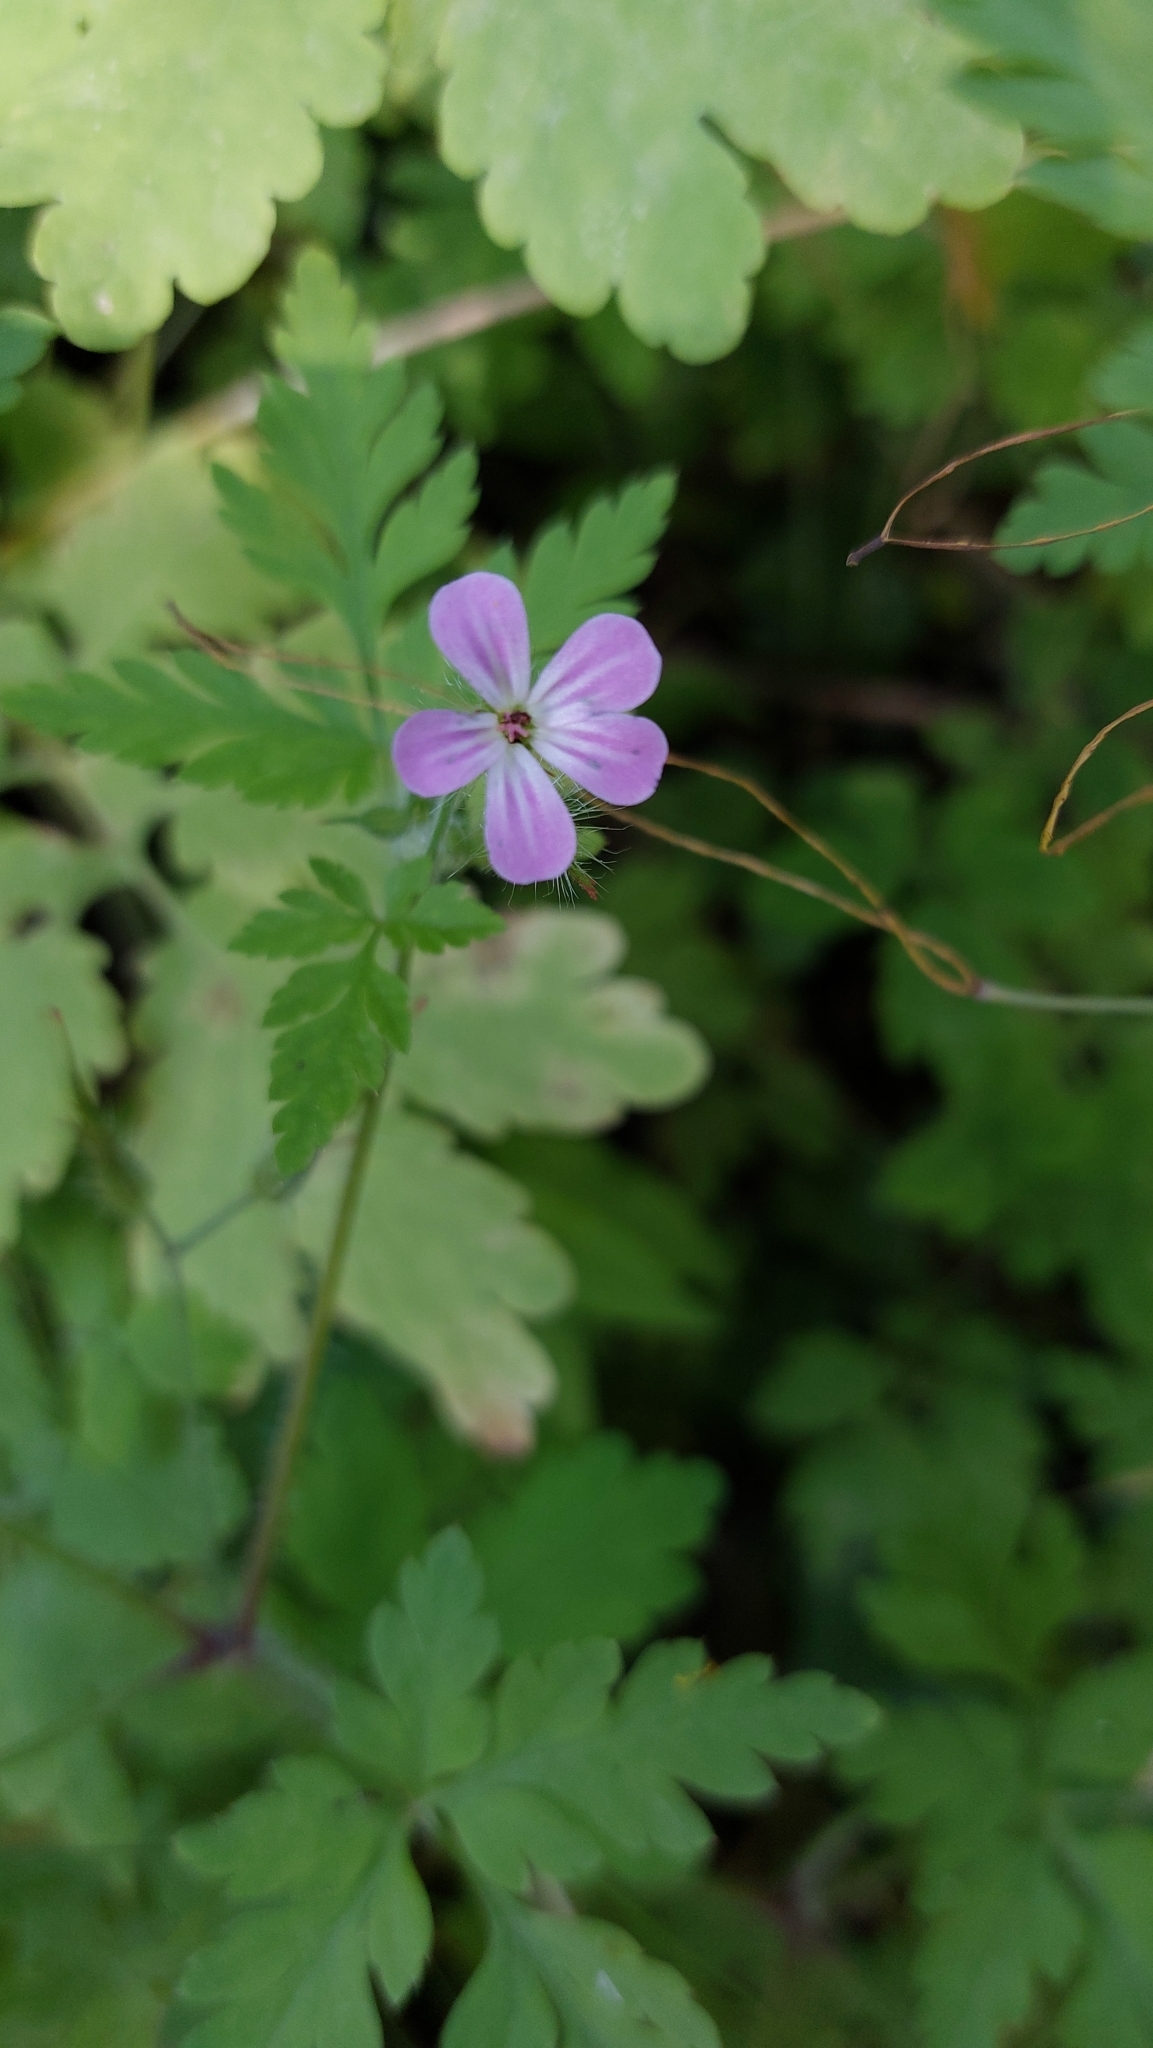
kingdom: Plantae
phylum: Tracheophyta
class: Magnoliopsida
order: Geraniales
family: Geraniaceae
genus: Geranium
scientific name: Geranium robertianum
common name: Herb-robert
